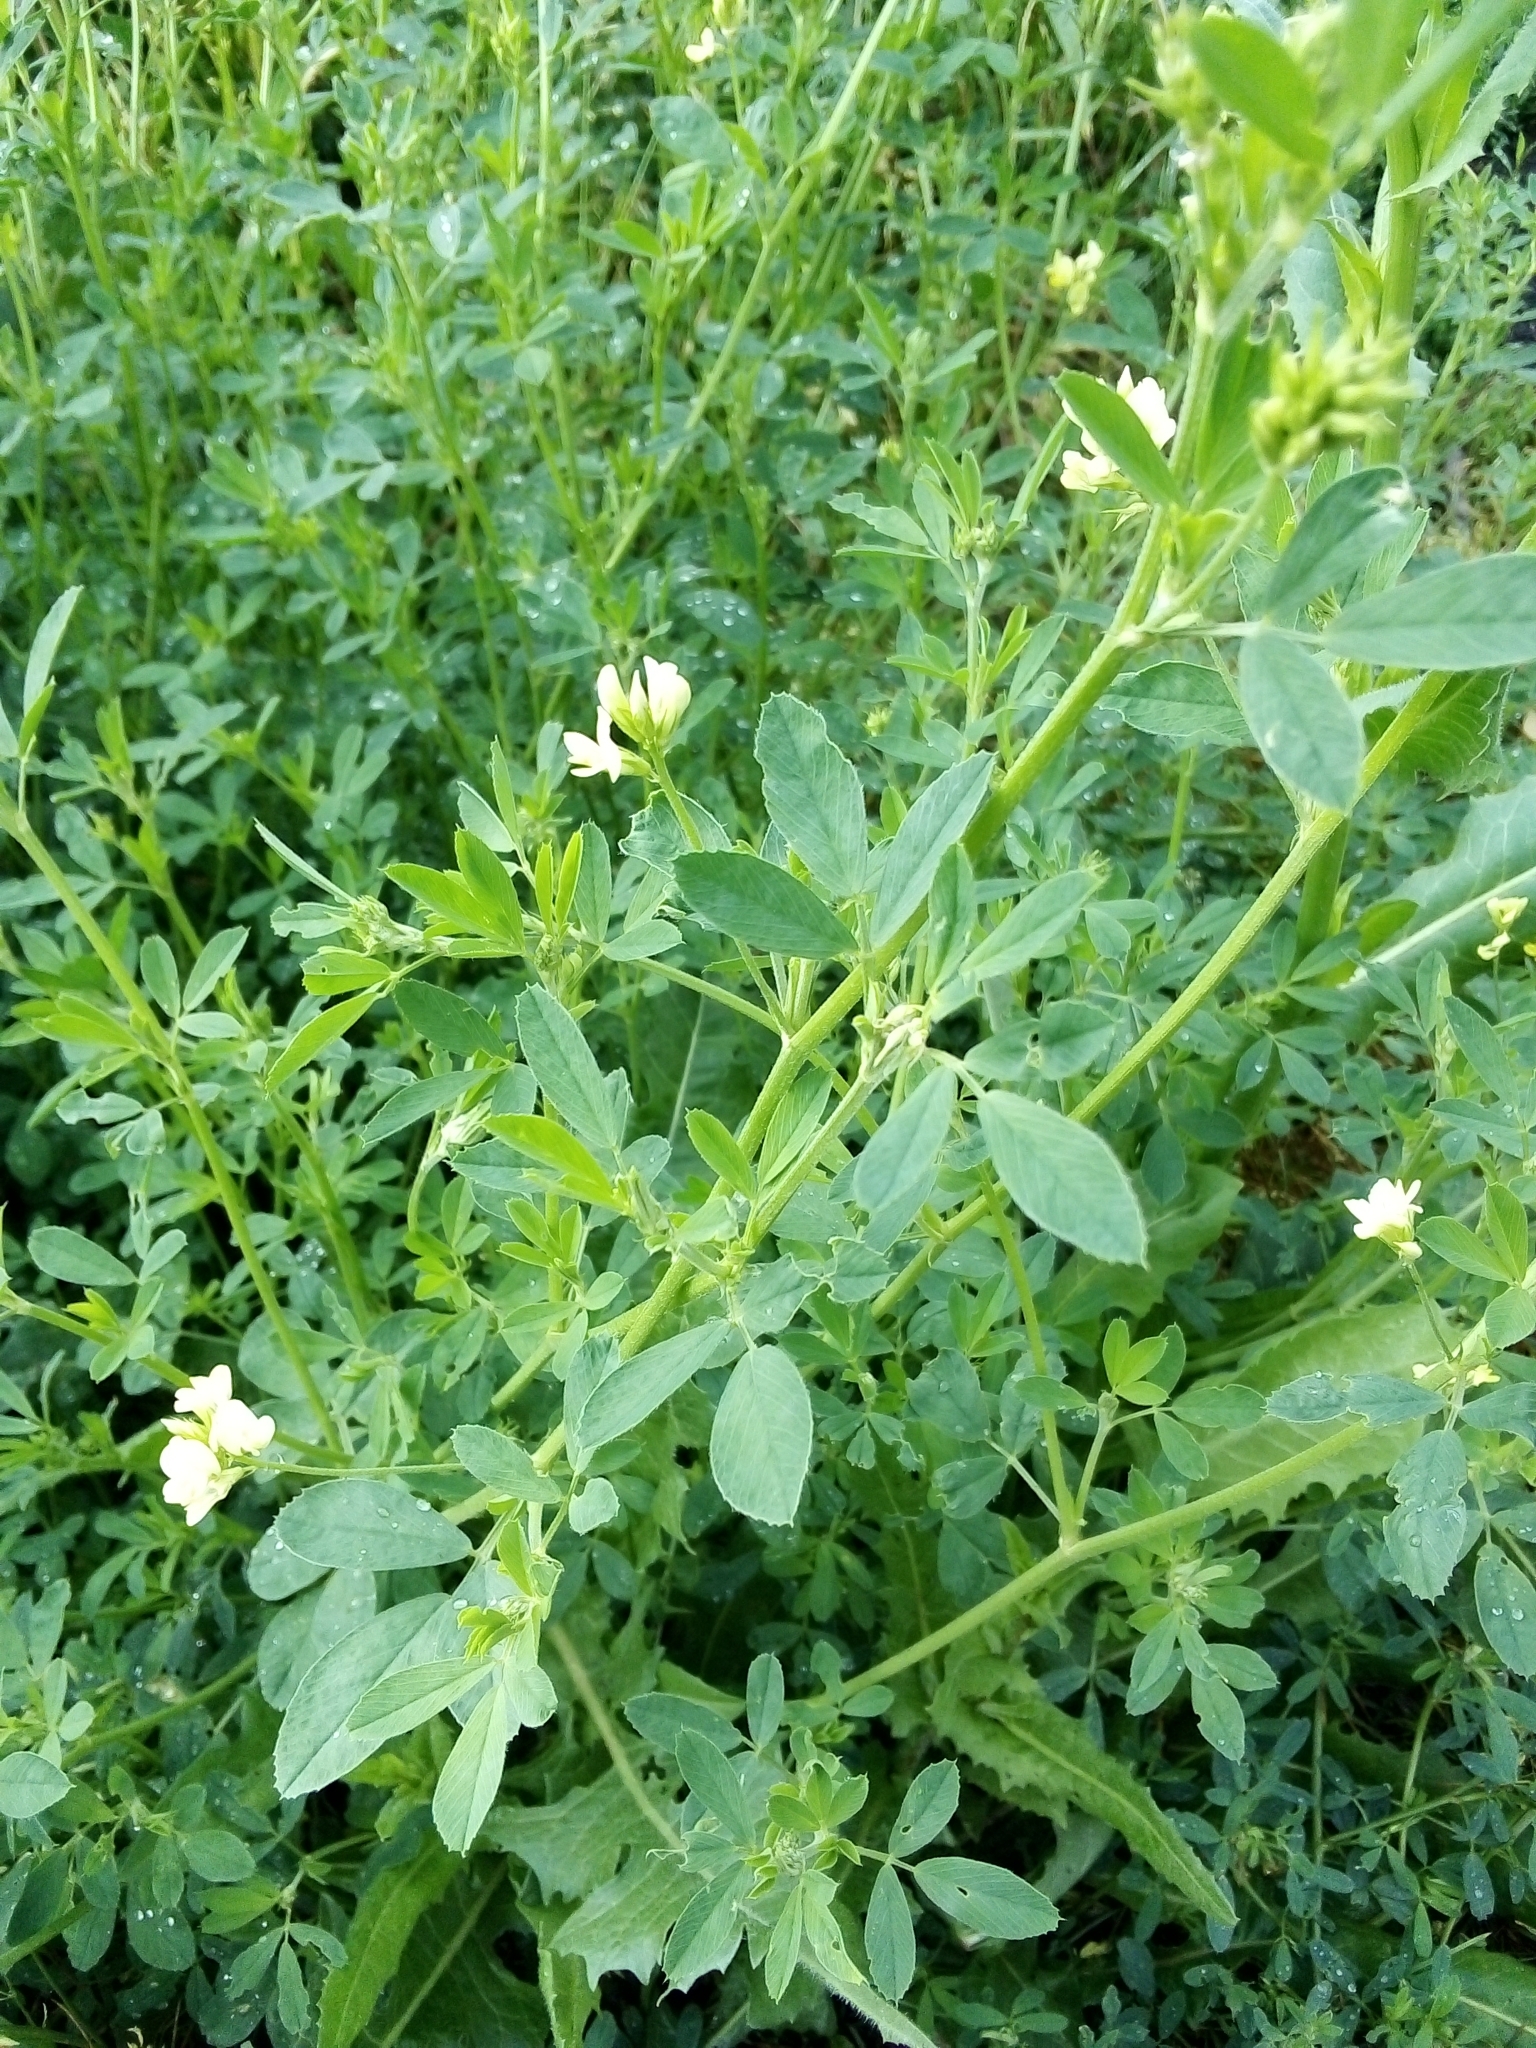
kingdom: Plantae
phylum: Tracheophyta
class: Magnoliopsida
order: Fabales
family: Fabaceae
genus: Medicago
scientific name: Medicago varia
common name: Sand lucerne
